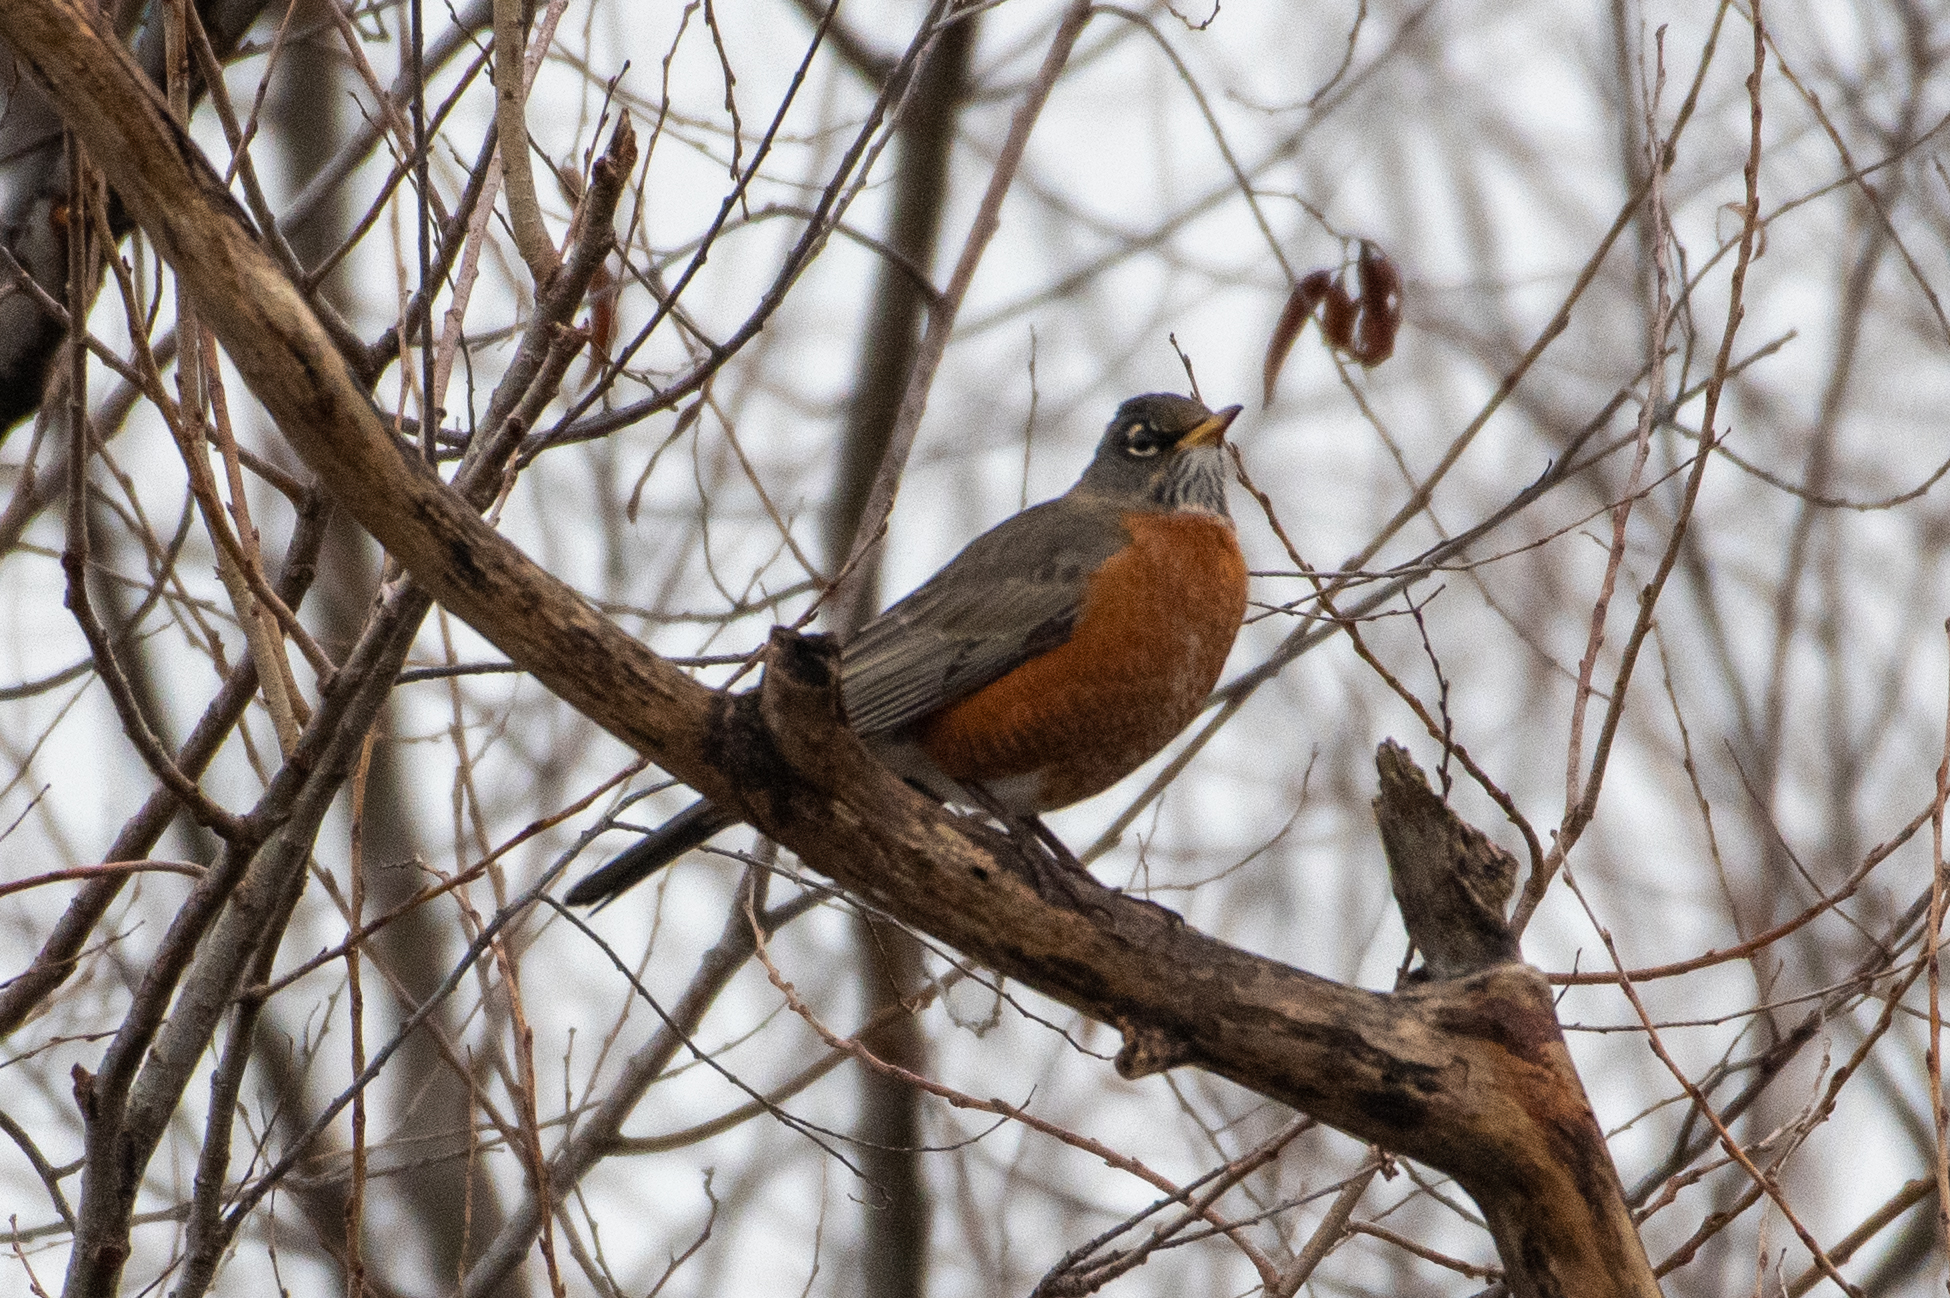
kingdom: Animalia
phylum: Chordata
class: Aves
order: Passeriformes
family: Turdidae
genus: Turdus
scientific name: Turdus migratorius
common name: American robin
